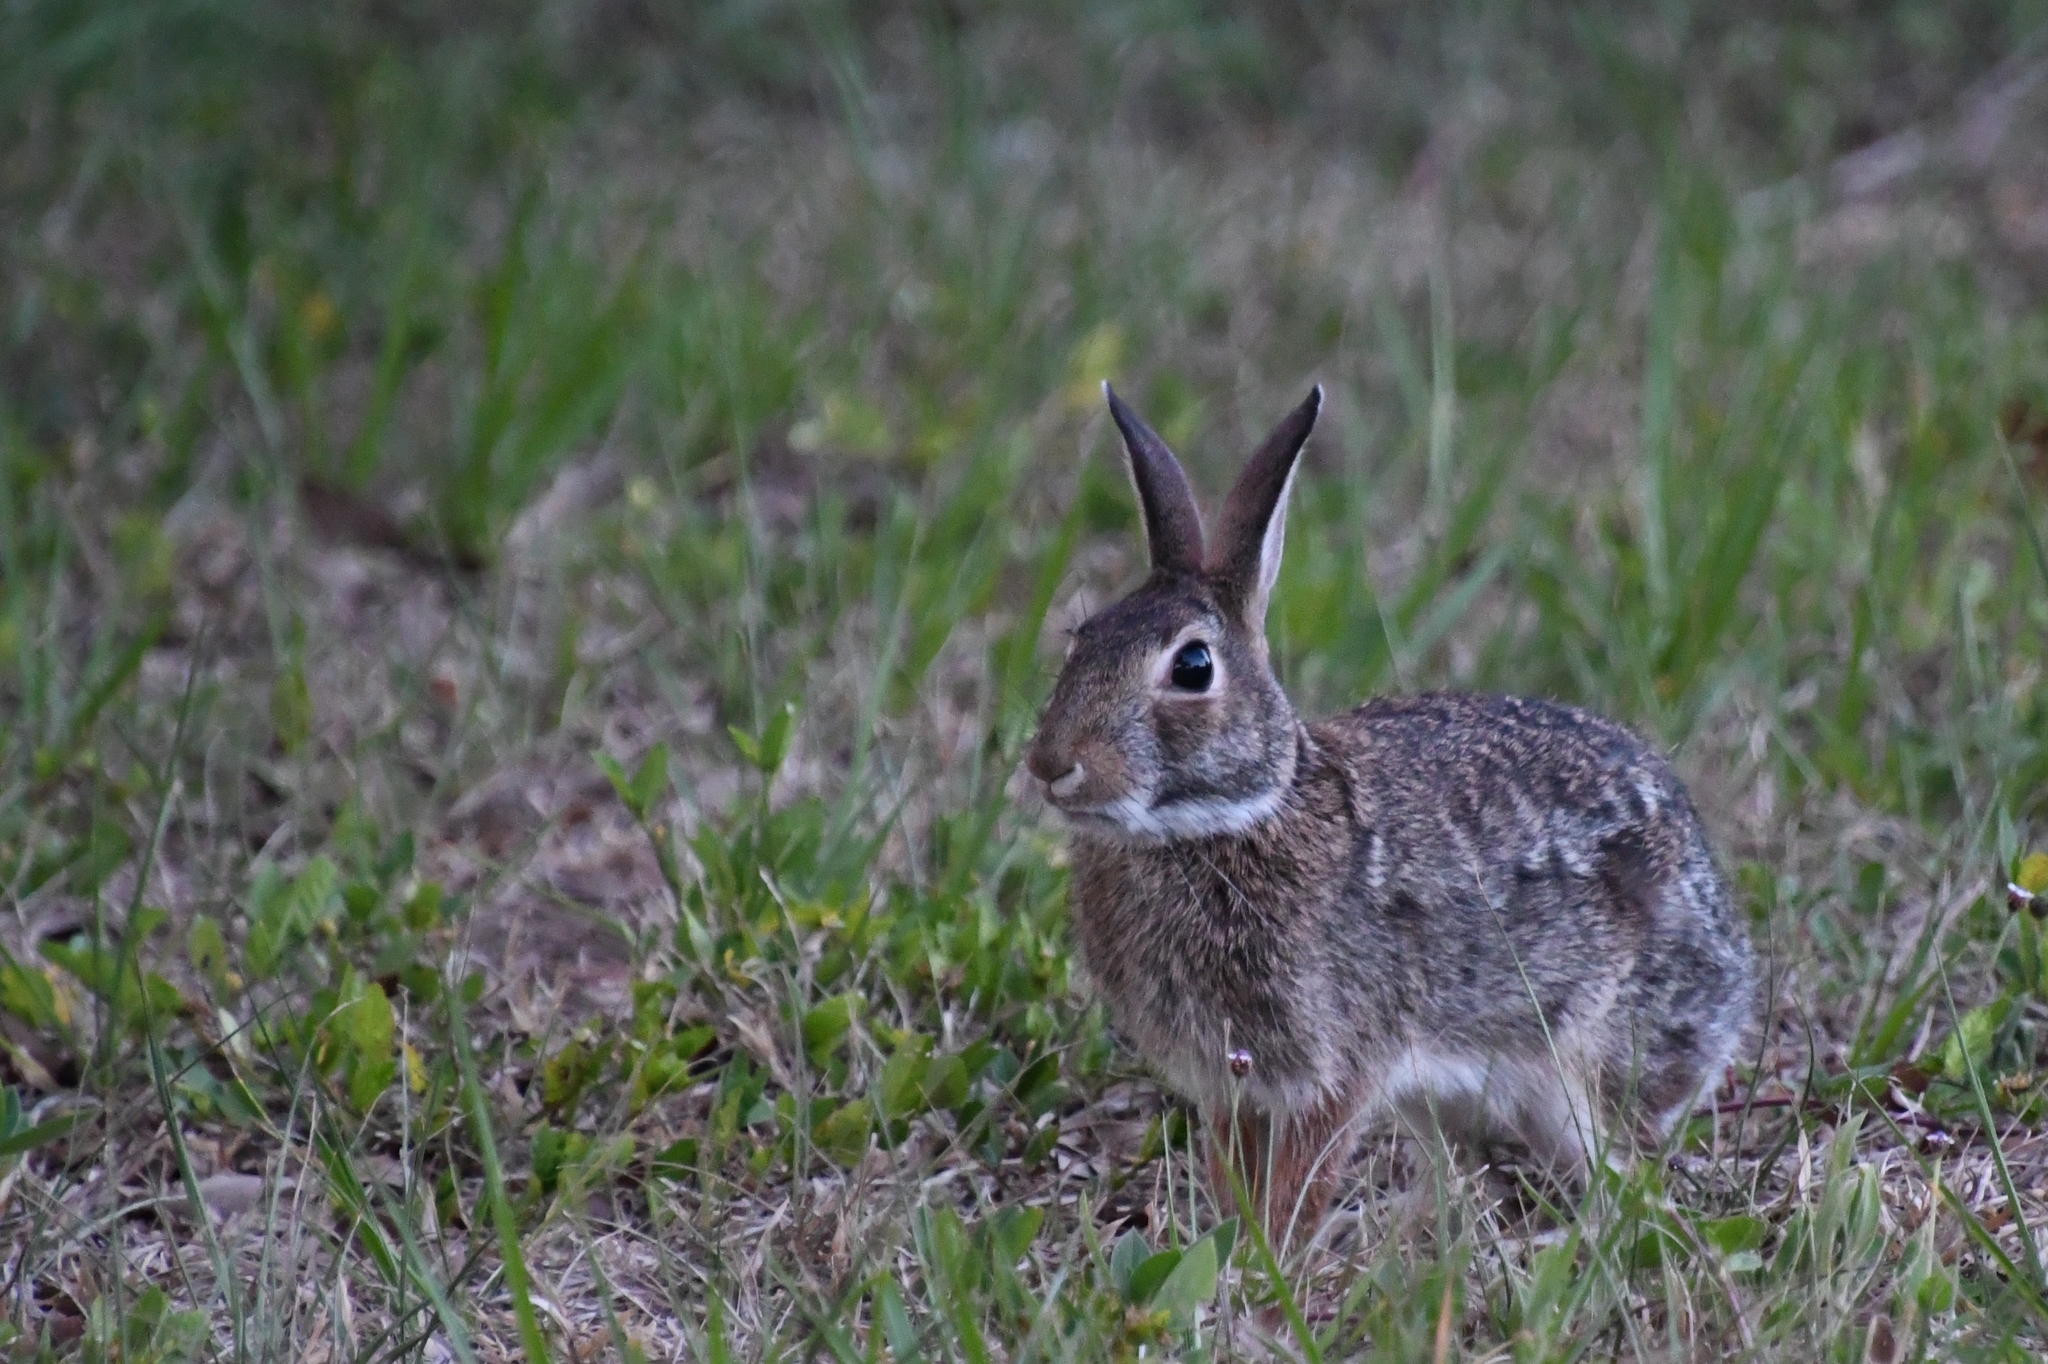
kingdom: Animalia
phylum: Chordata
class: Mammalia
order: Lagomorpha
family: Leporidae
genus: Sylvilagus
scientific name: Sylvilagus floridanus
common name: Eastern cottontail
